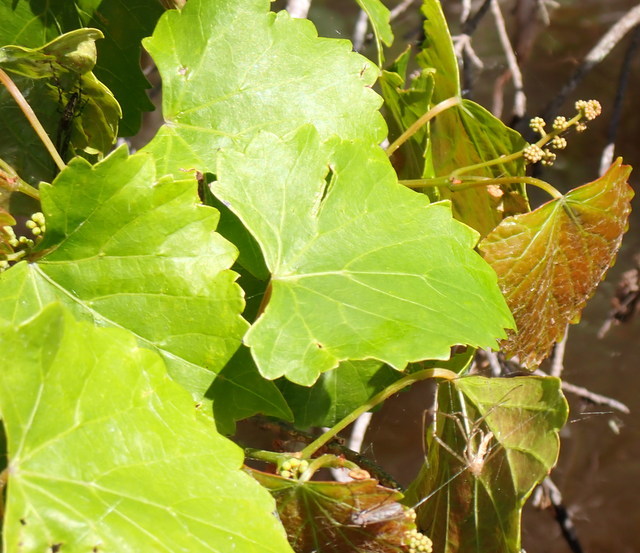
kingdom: Plantae
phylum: Tracheophyta
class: Magnoliopsida
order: Vitales
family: Vitaceae
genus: Vitis
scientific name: Vitis rotundifolia
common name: Muscadine grape
